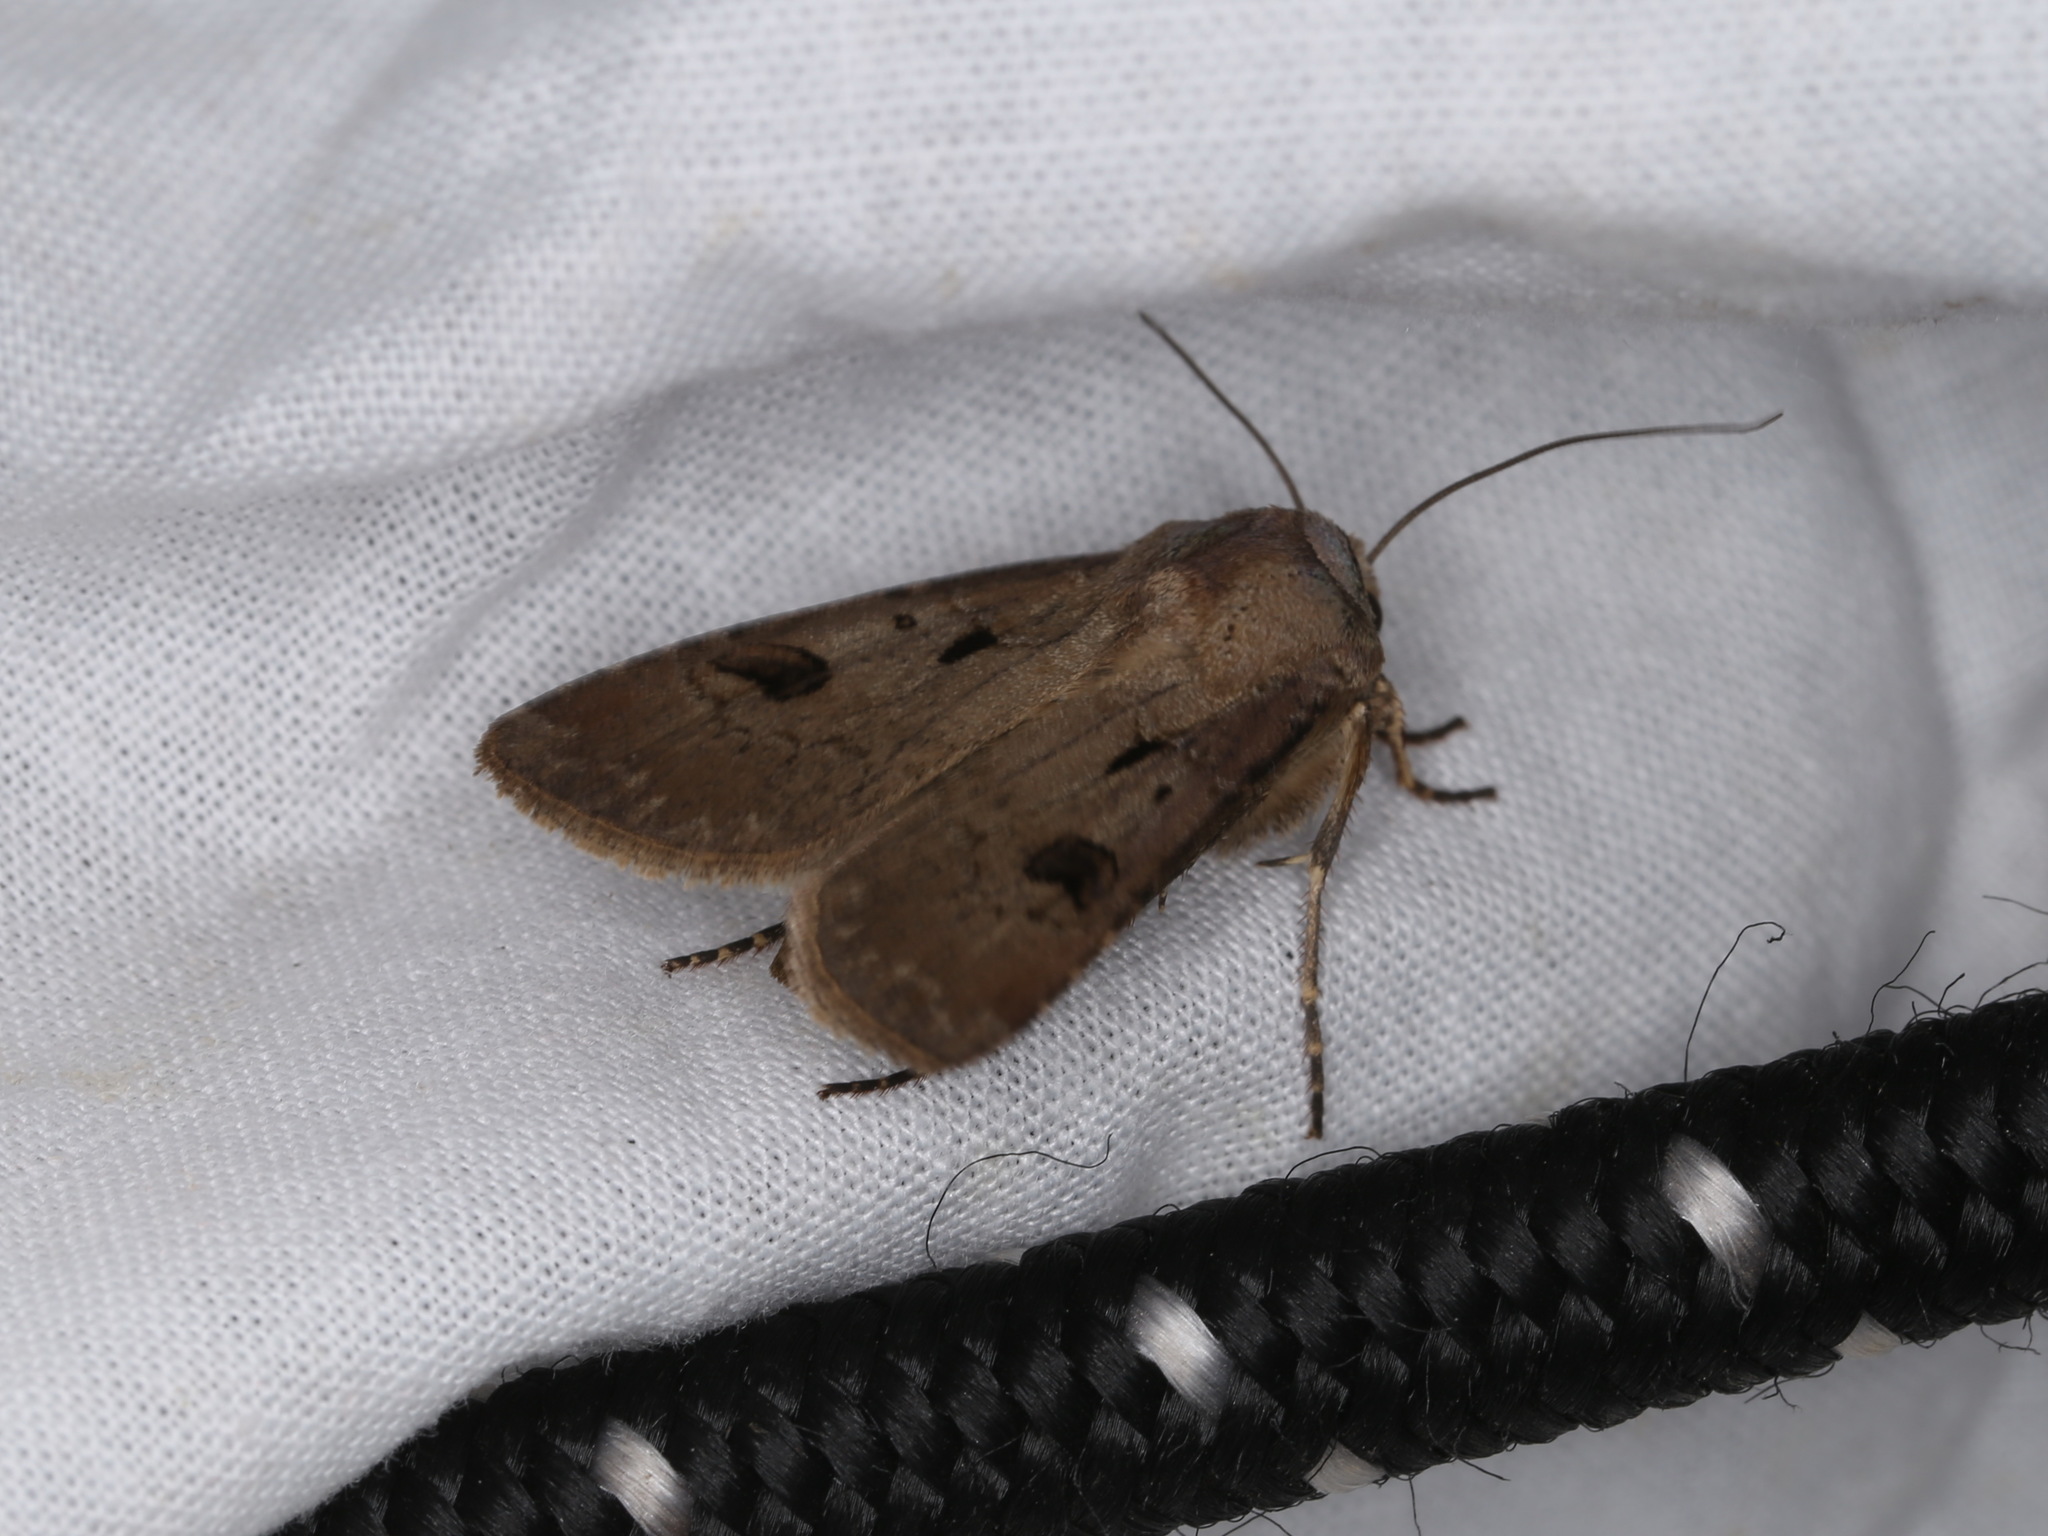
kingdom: Animalia
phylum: Arthropoda
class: Insecta
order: Lepidoptera
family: Noctuidae
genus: Agrotis
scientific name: Agrotis exclamationis
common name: Heart and dart
